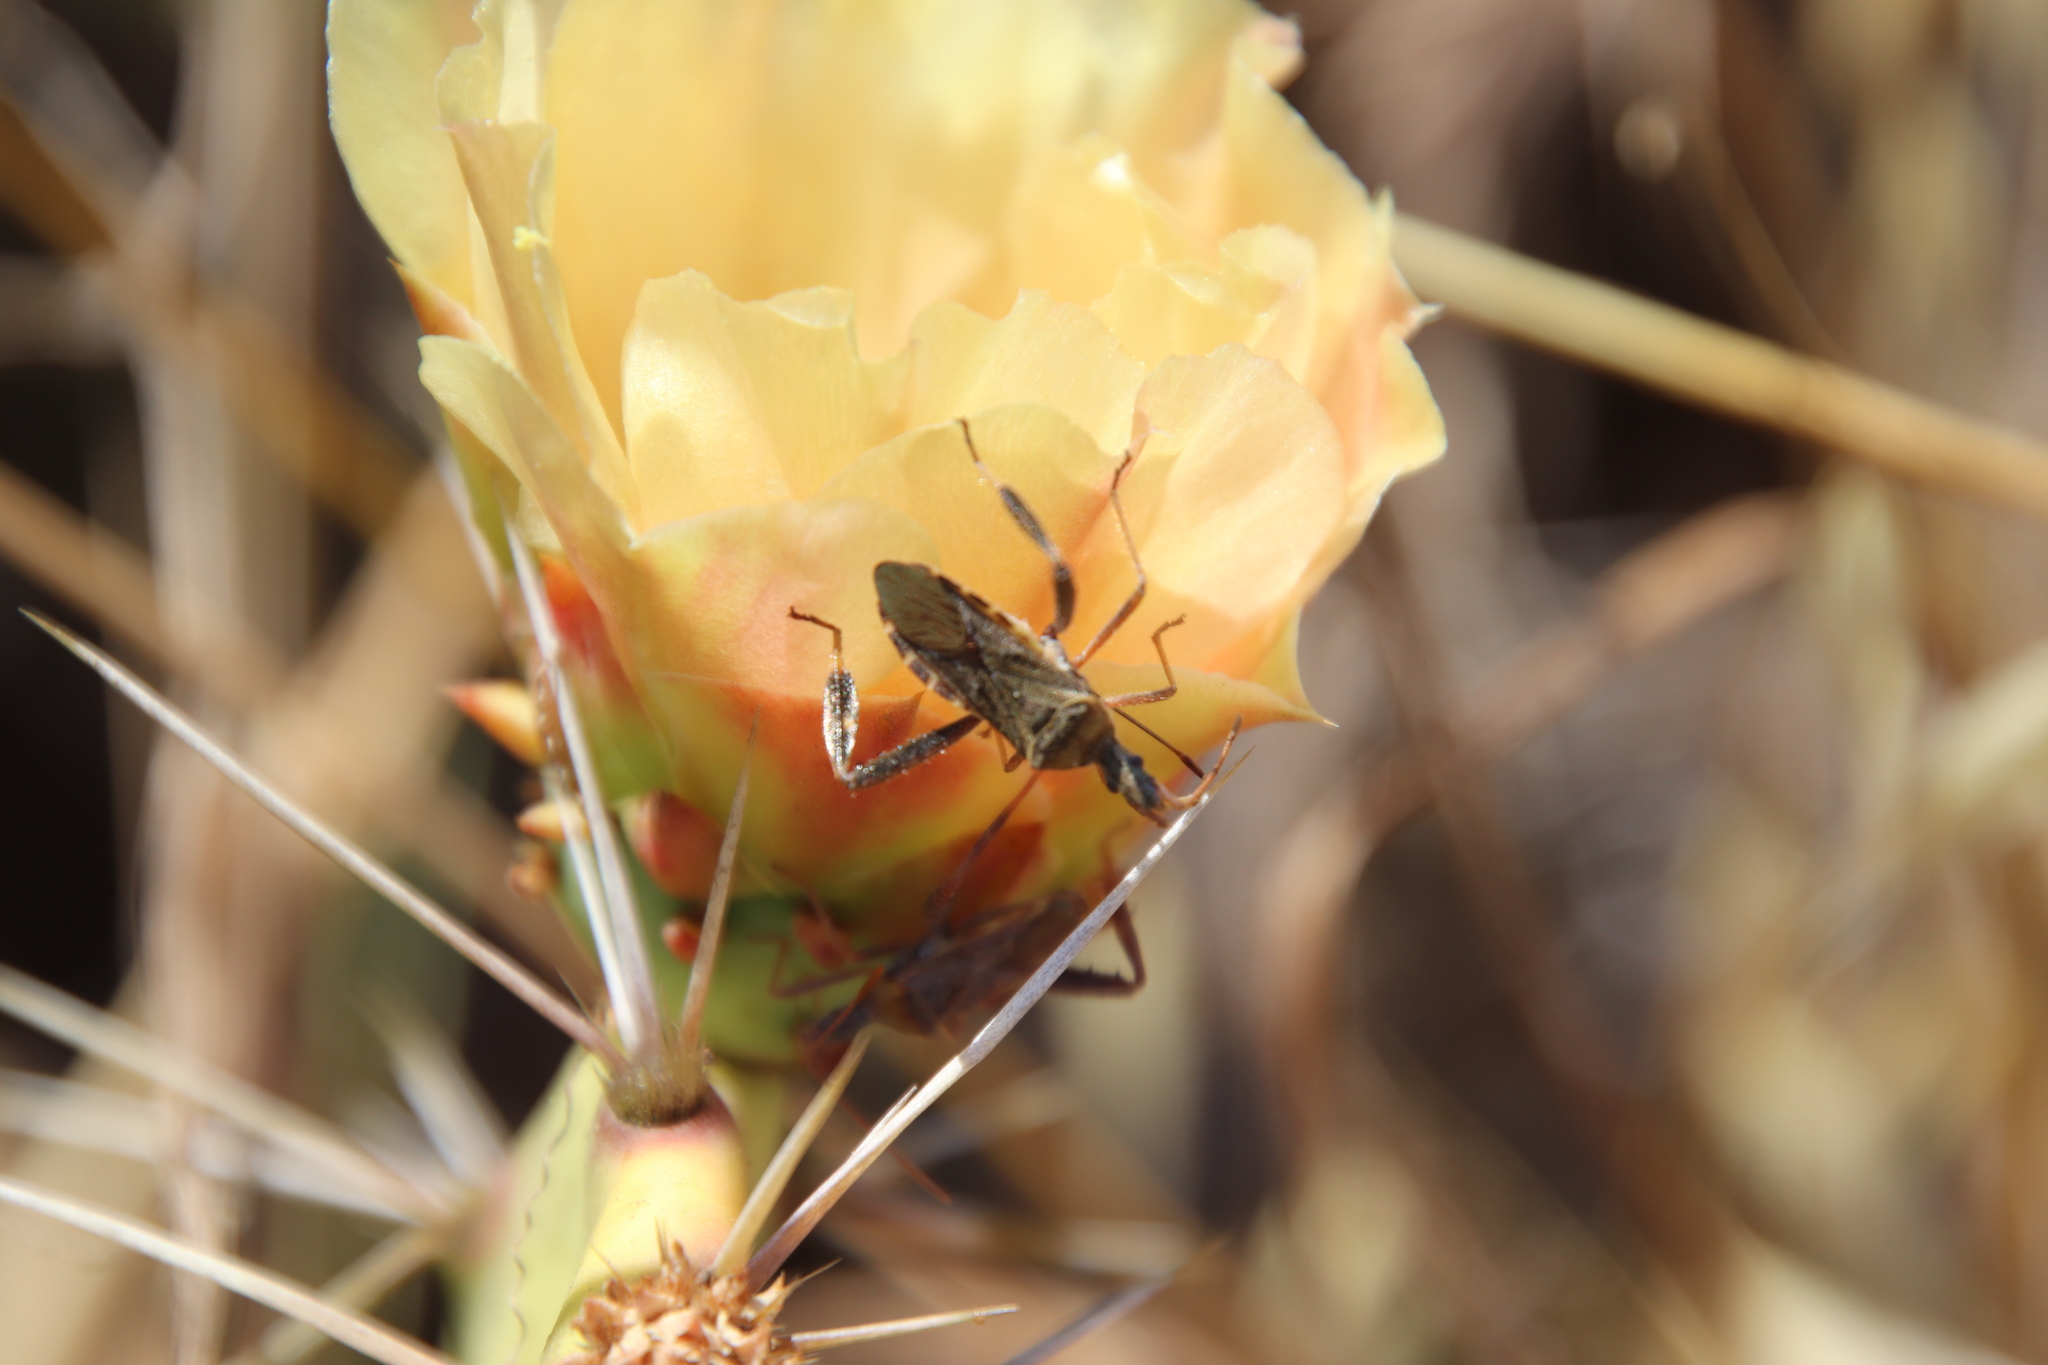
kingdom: Animalia
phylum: Arthropoda
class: Insecta
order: Hemiptera
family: Coreidae
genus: Narnia
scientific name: Narnia femorata
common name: Leaf-footed cactus bug
